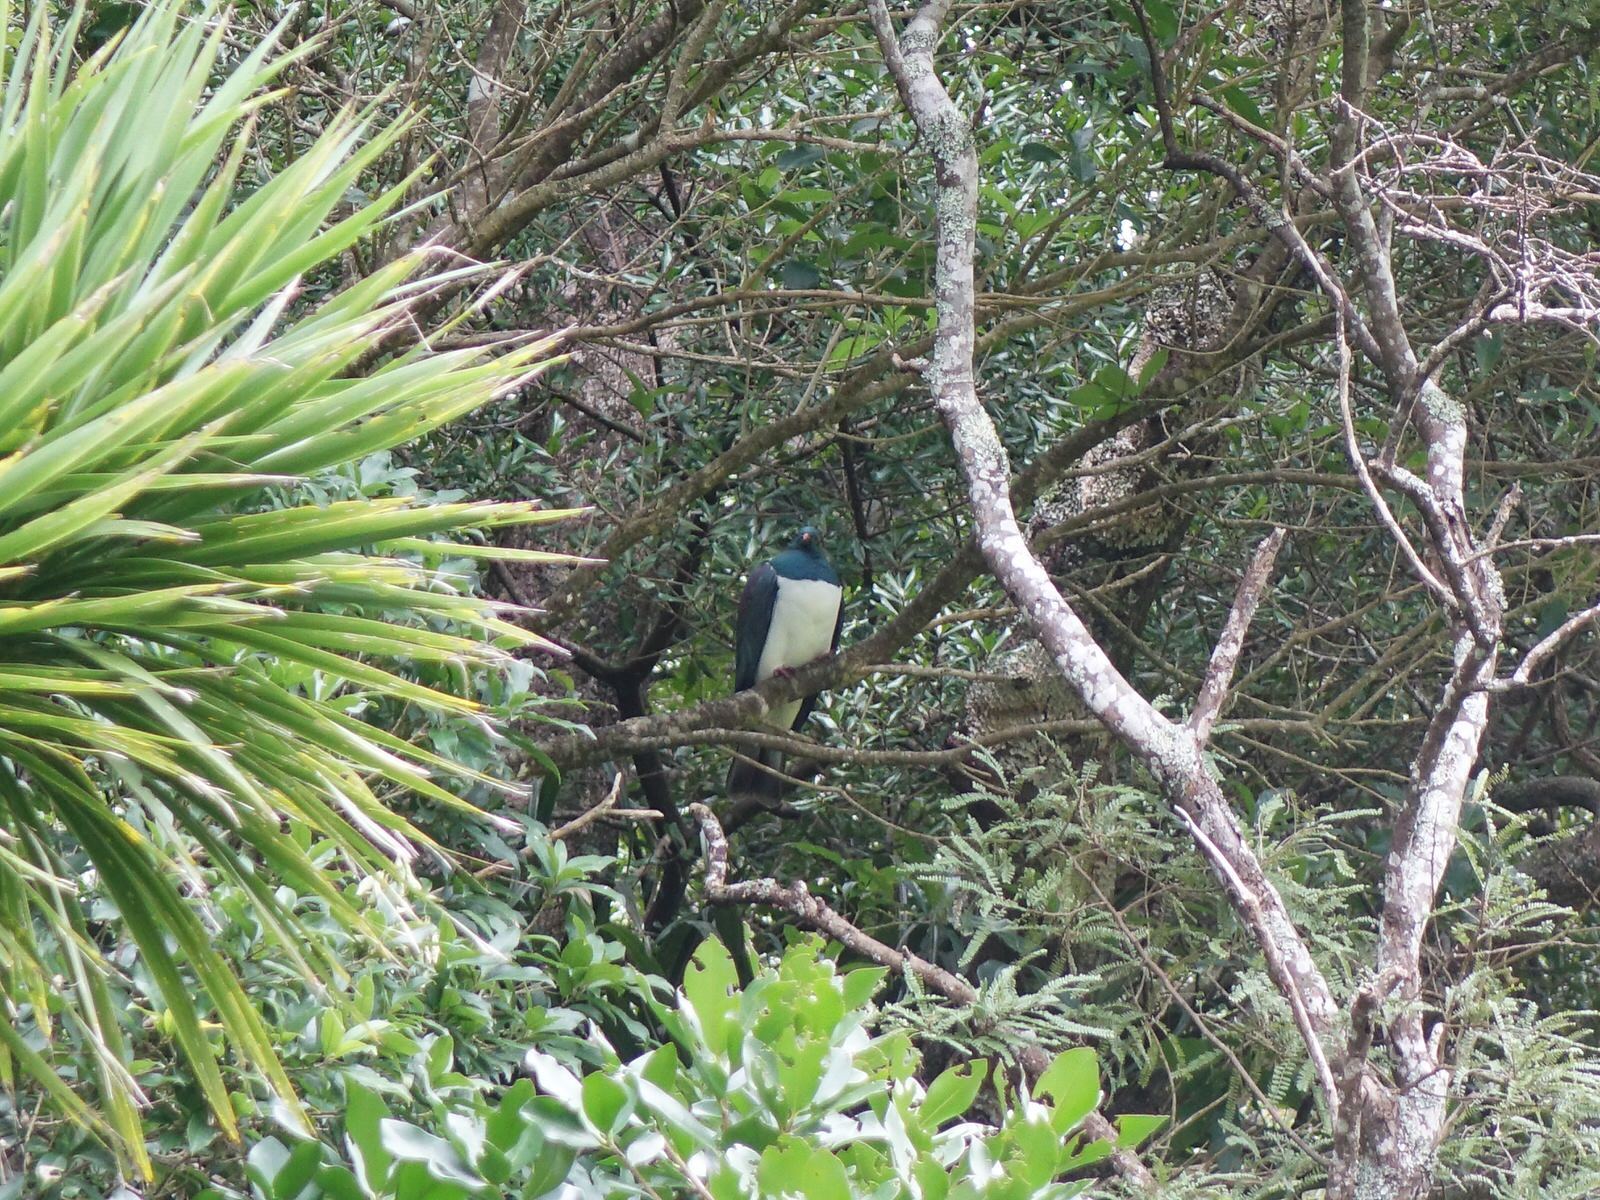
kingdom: Animalia
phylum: Chordata
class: Aves
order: Columbiformes
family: Columbidae
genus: Hemiphaga
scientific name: Hemiphaga novaeseelandiae
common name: New zealand pigeon
